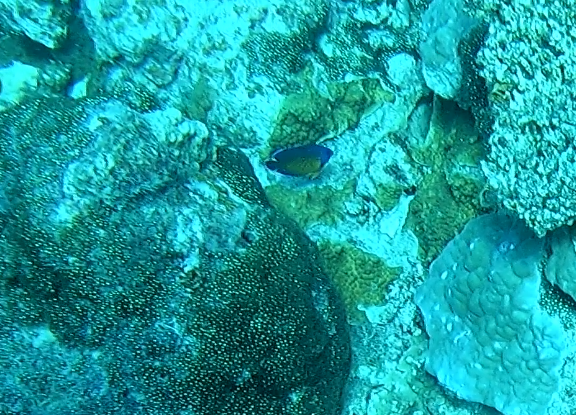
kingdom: Animalia
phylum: Chordata
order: Perciformes
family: Pomacanthidae
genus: Centropyge
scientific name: Centropyge bispinosa
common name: Coral beauty
